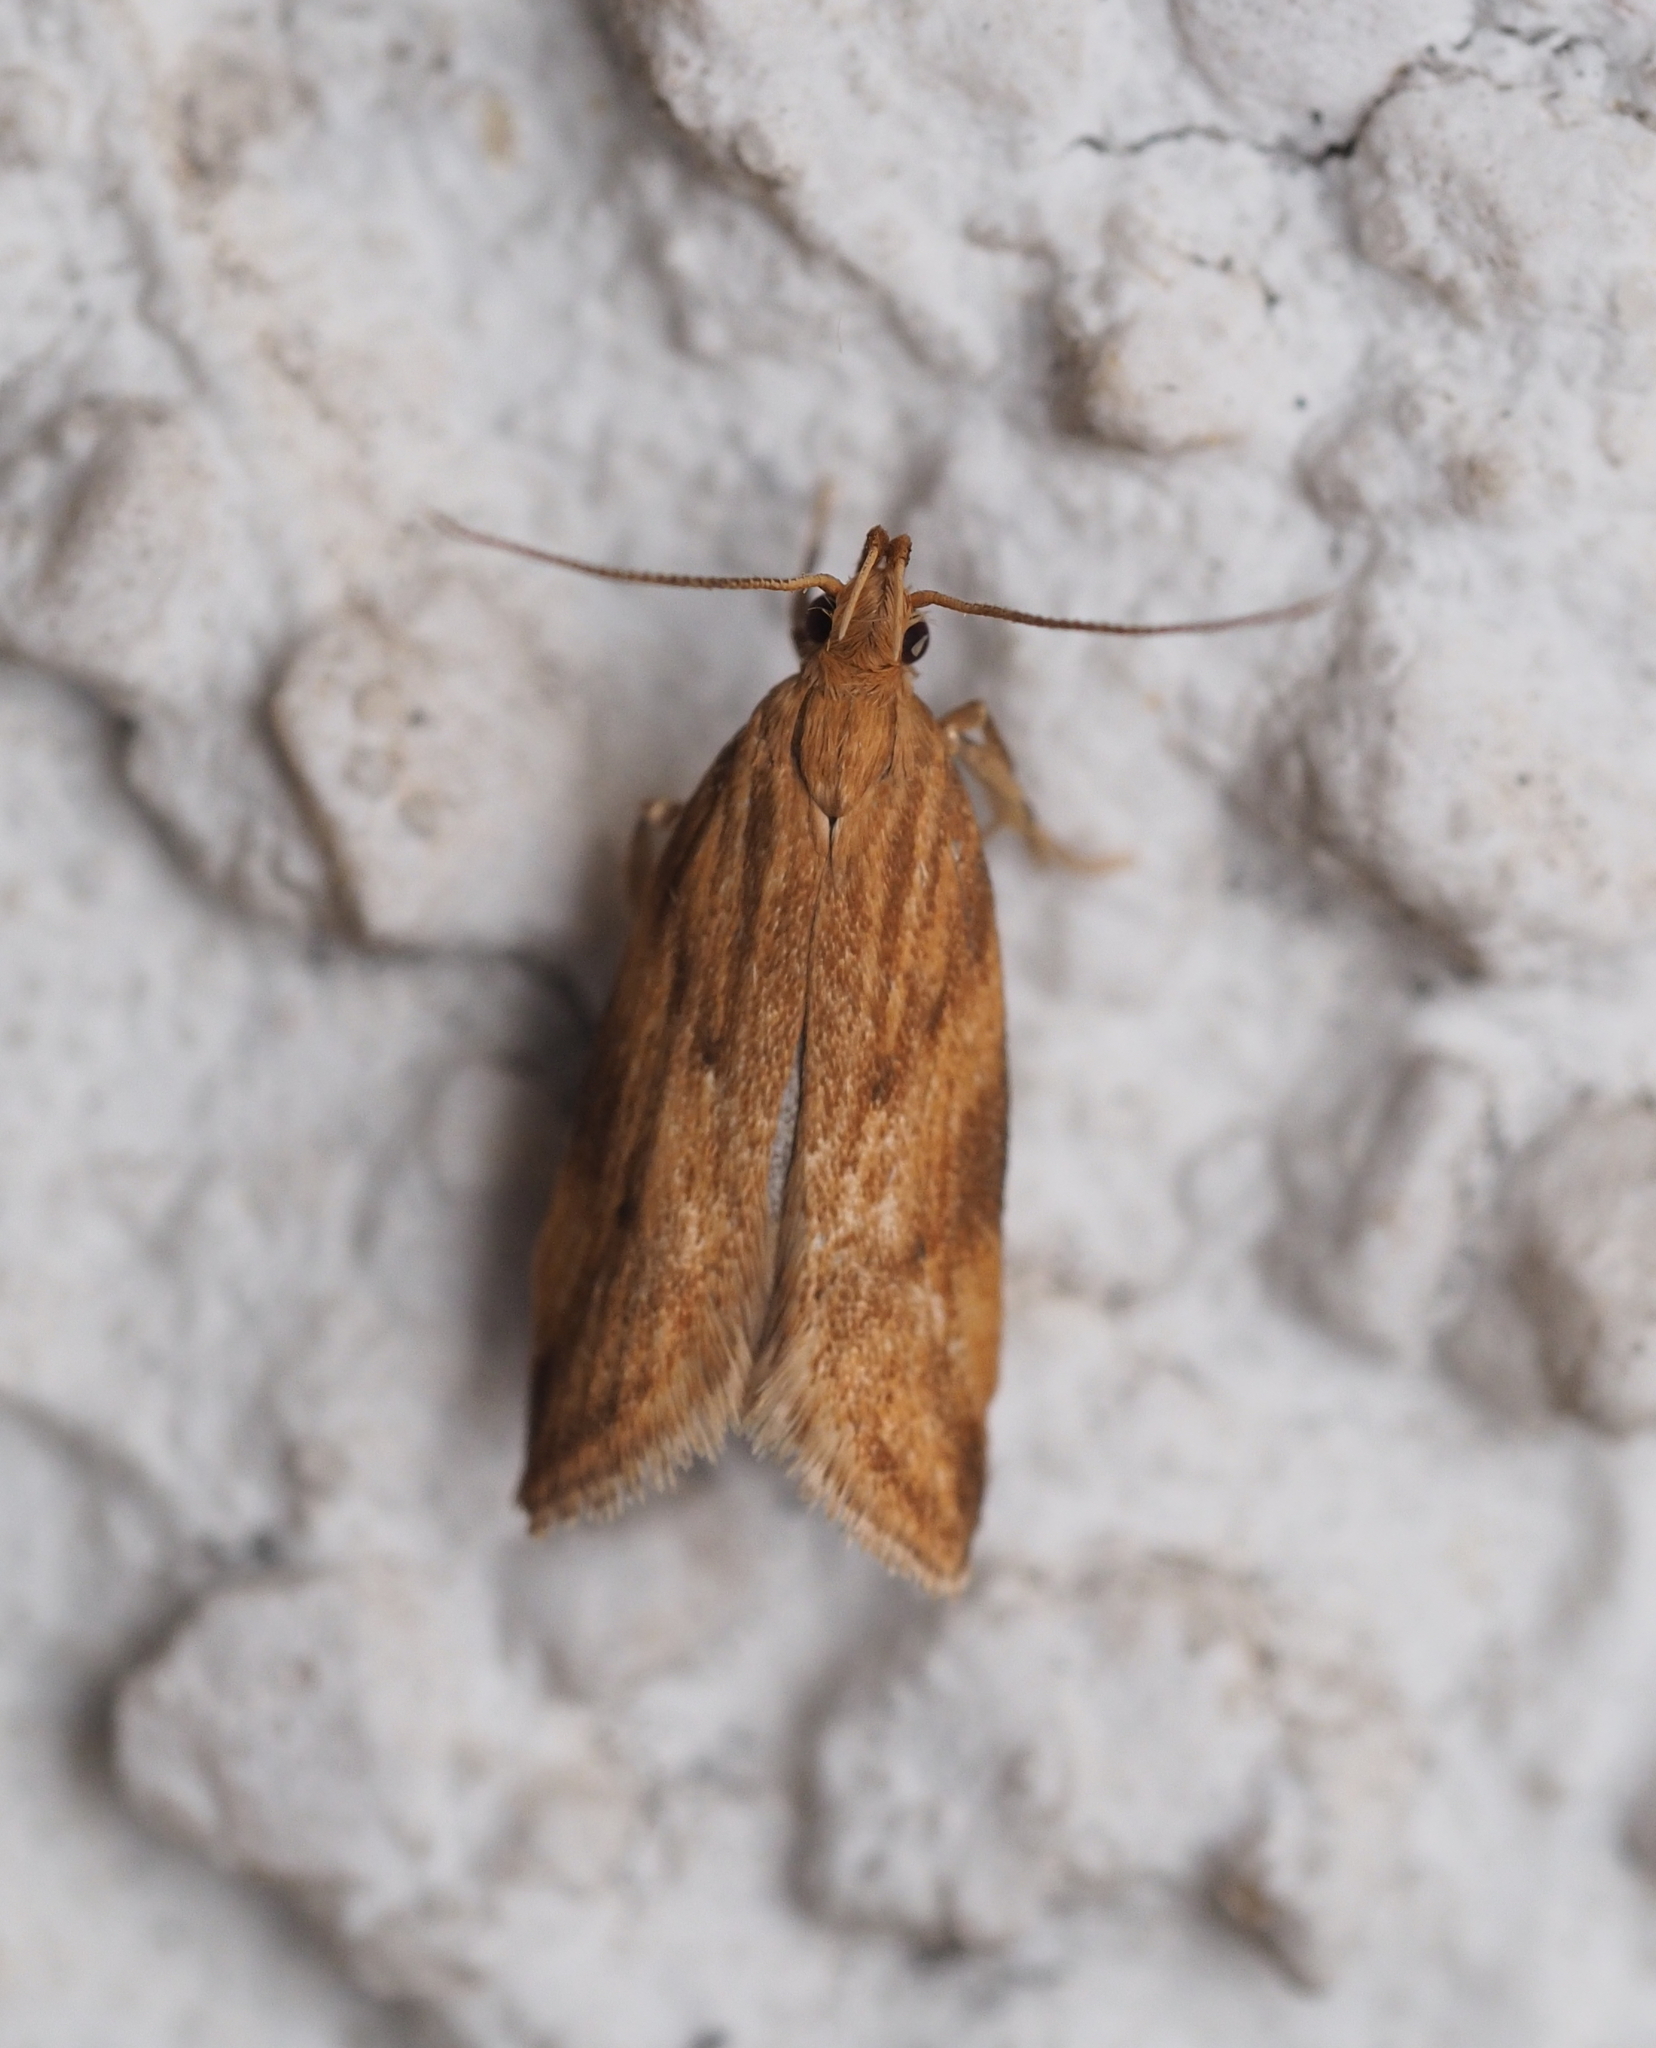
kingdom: Animalia
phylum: Arthropoda
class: Insecta
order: Lepidoptera
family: Depressariidae
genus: Orophia
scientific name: Orophia ferrugella
